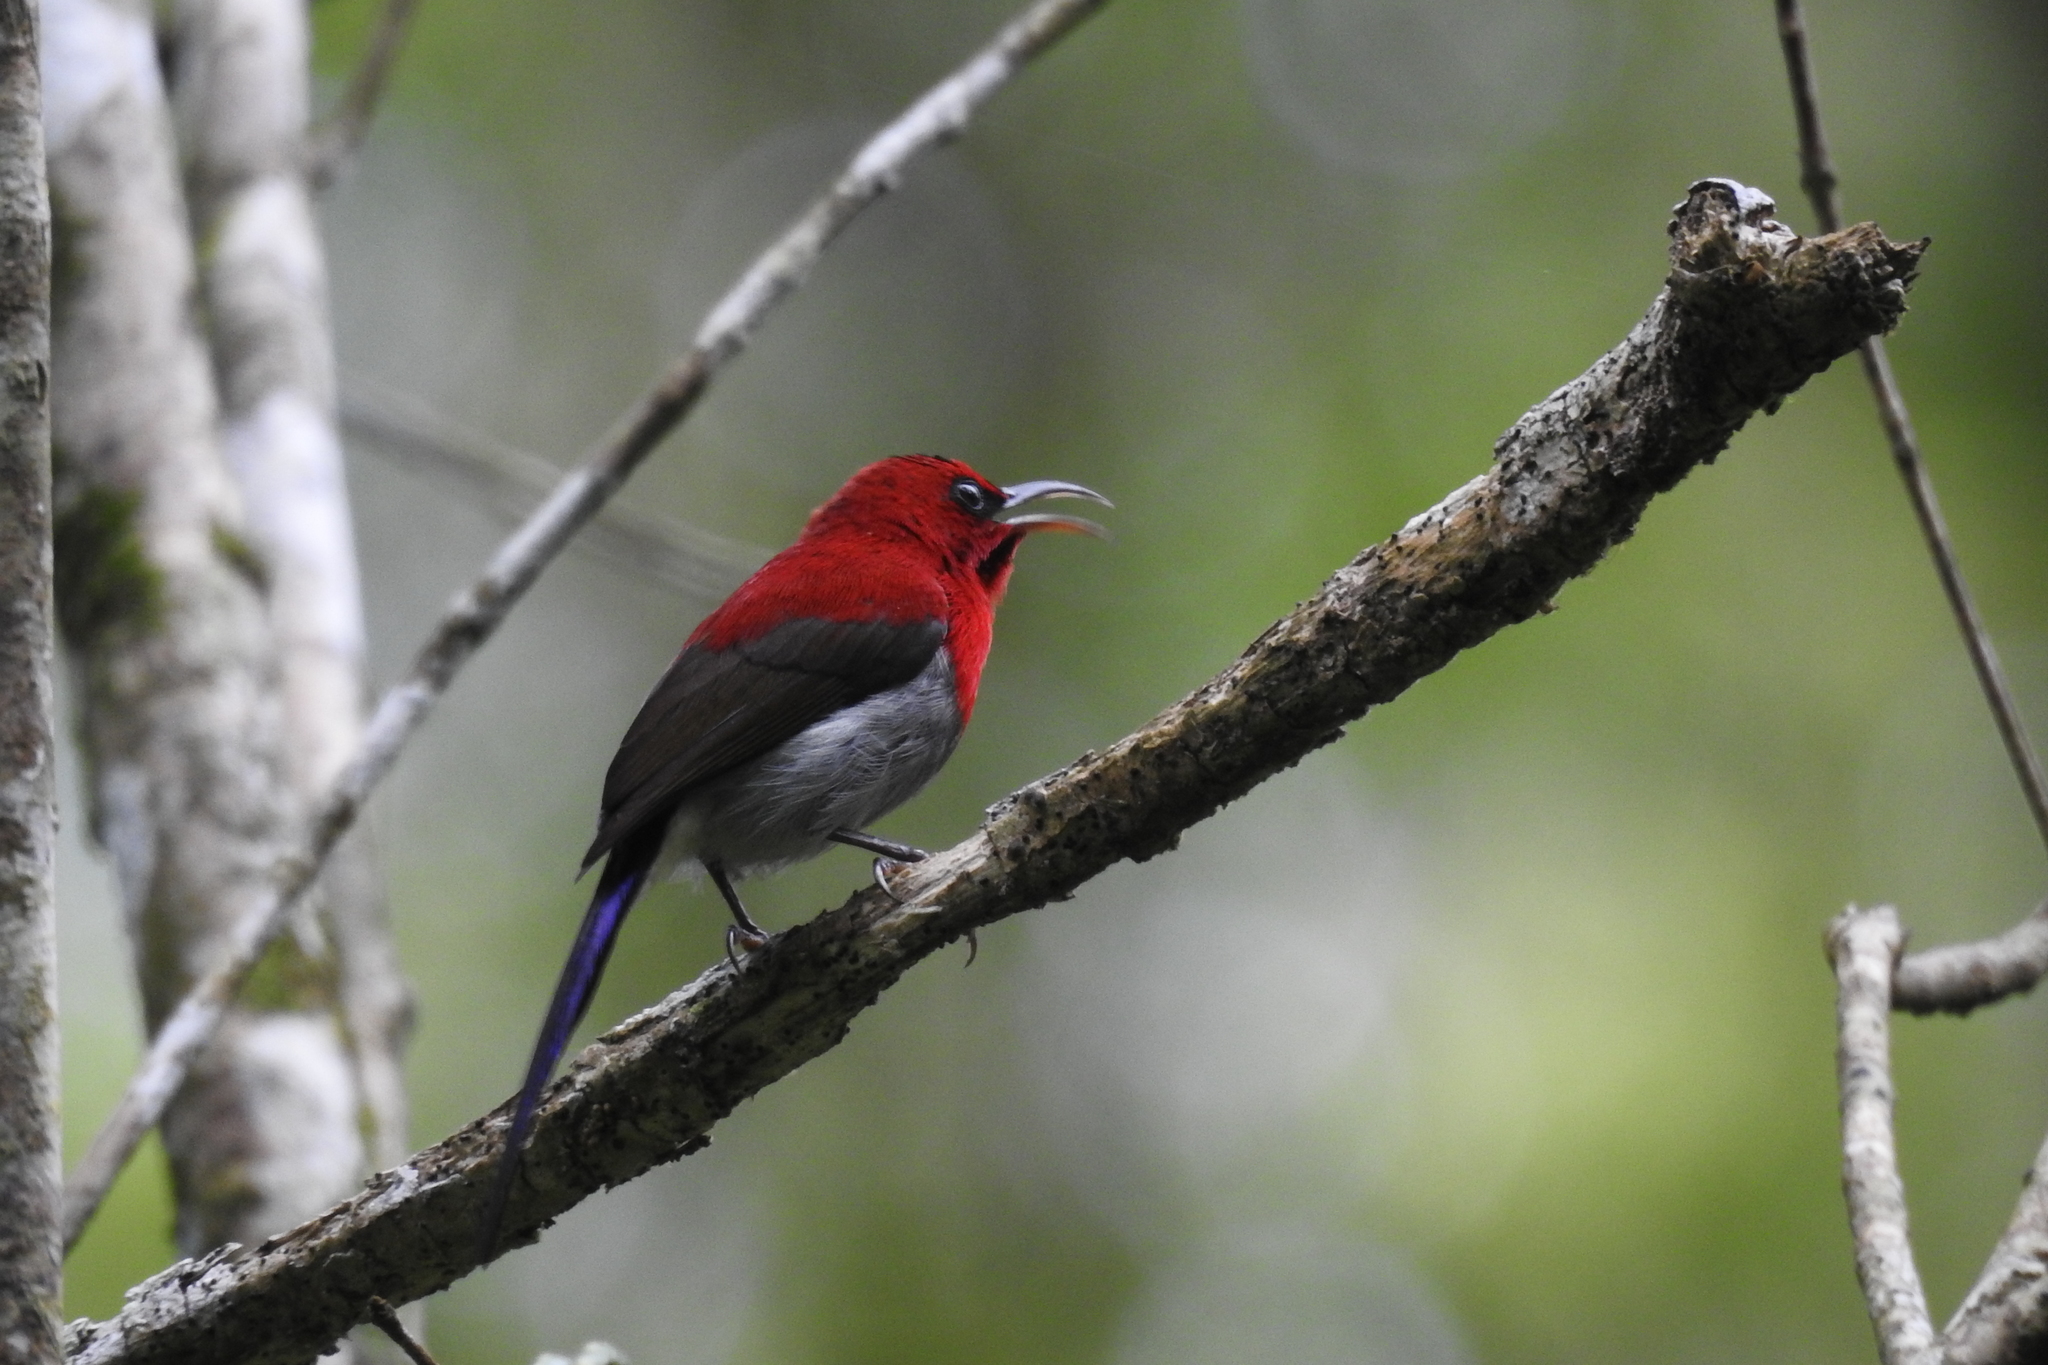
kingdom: Animalia
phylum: Chordata
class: Aves
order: Passeriformes
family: Nectariniidae
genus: Aethopyga
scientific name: Aethopyga mystacalis
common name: Javan sunbird
